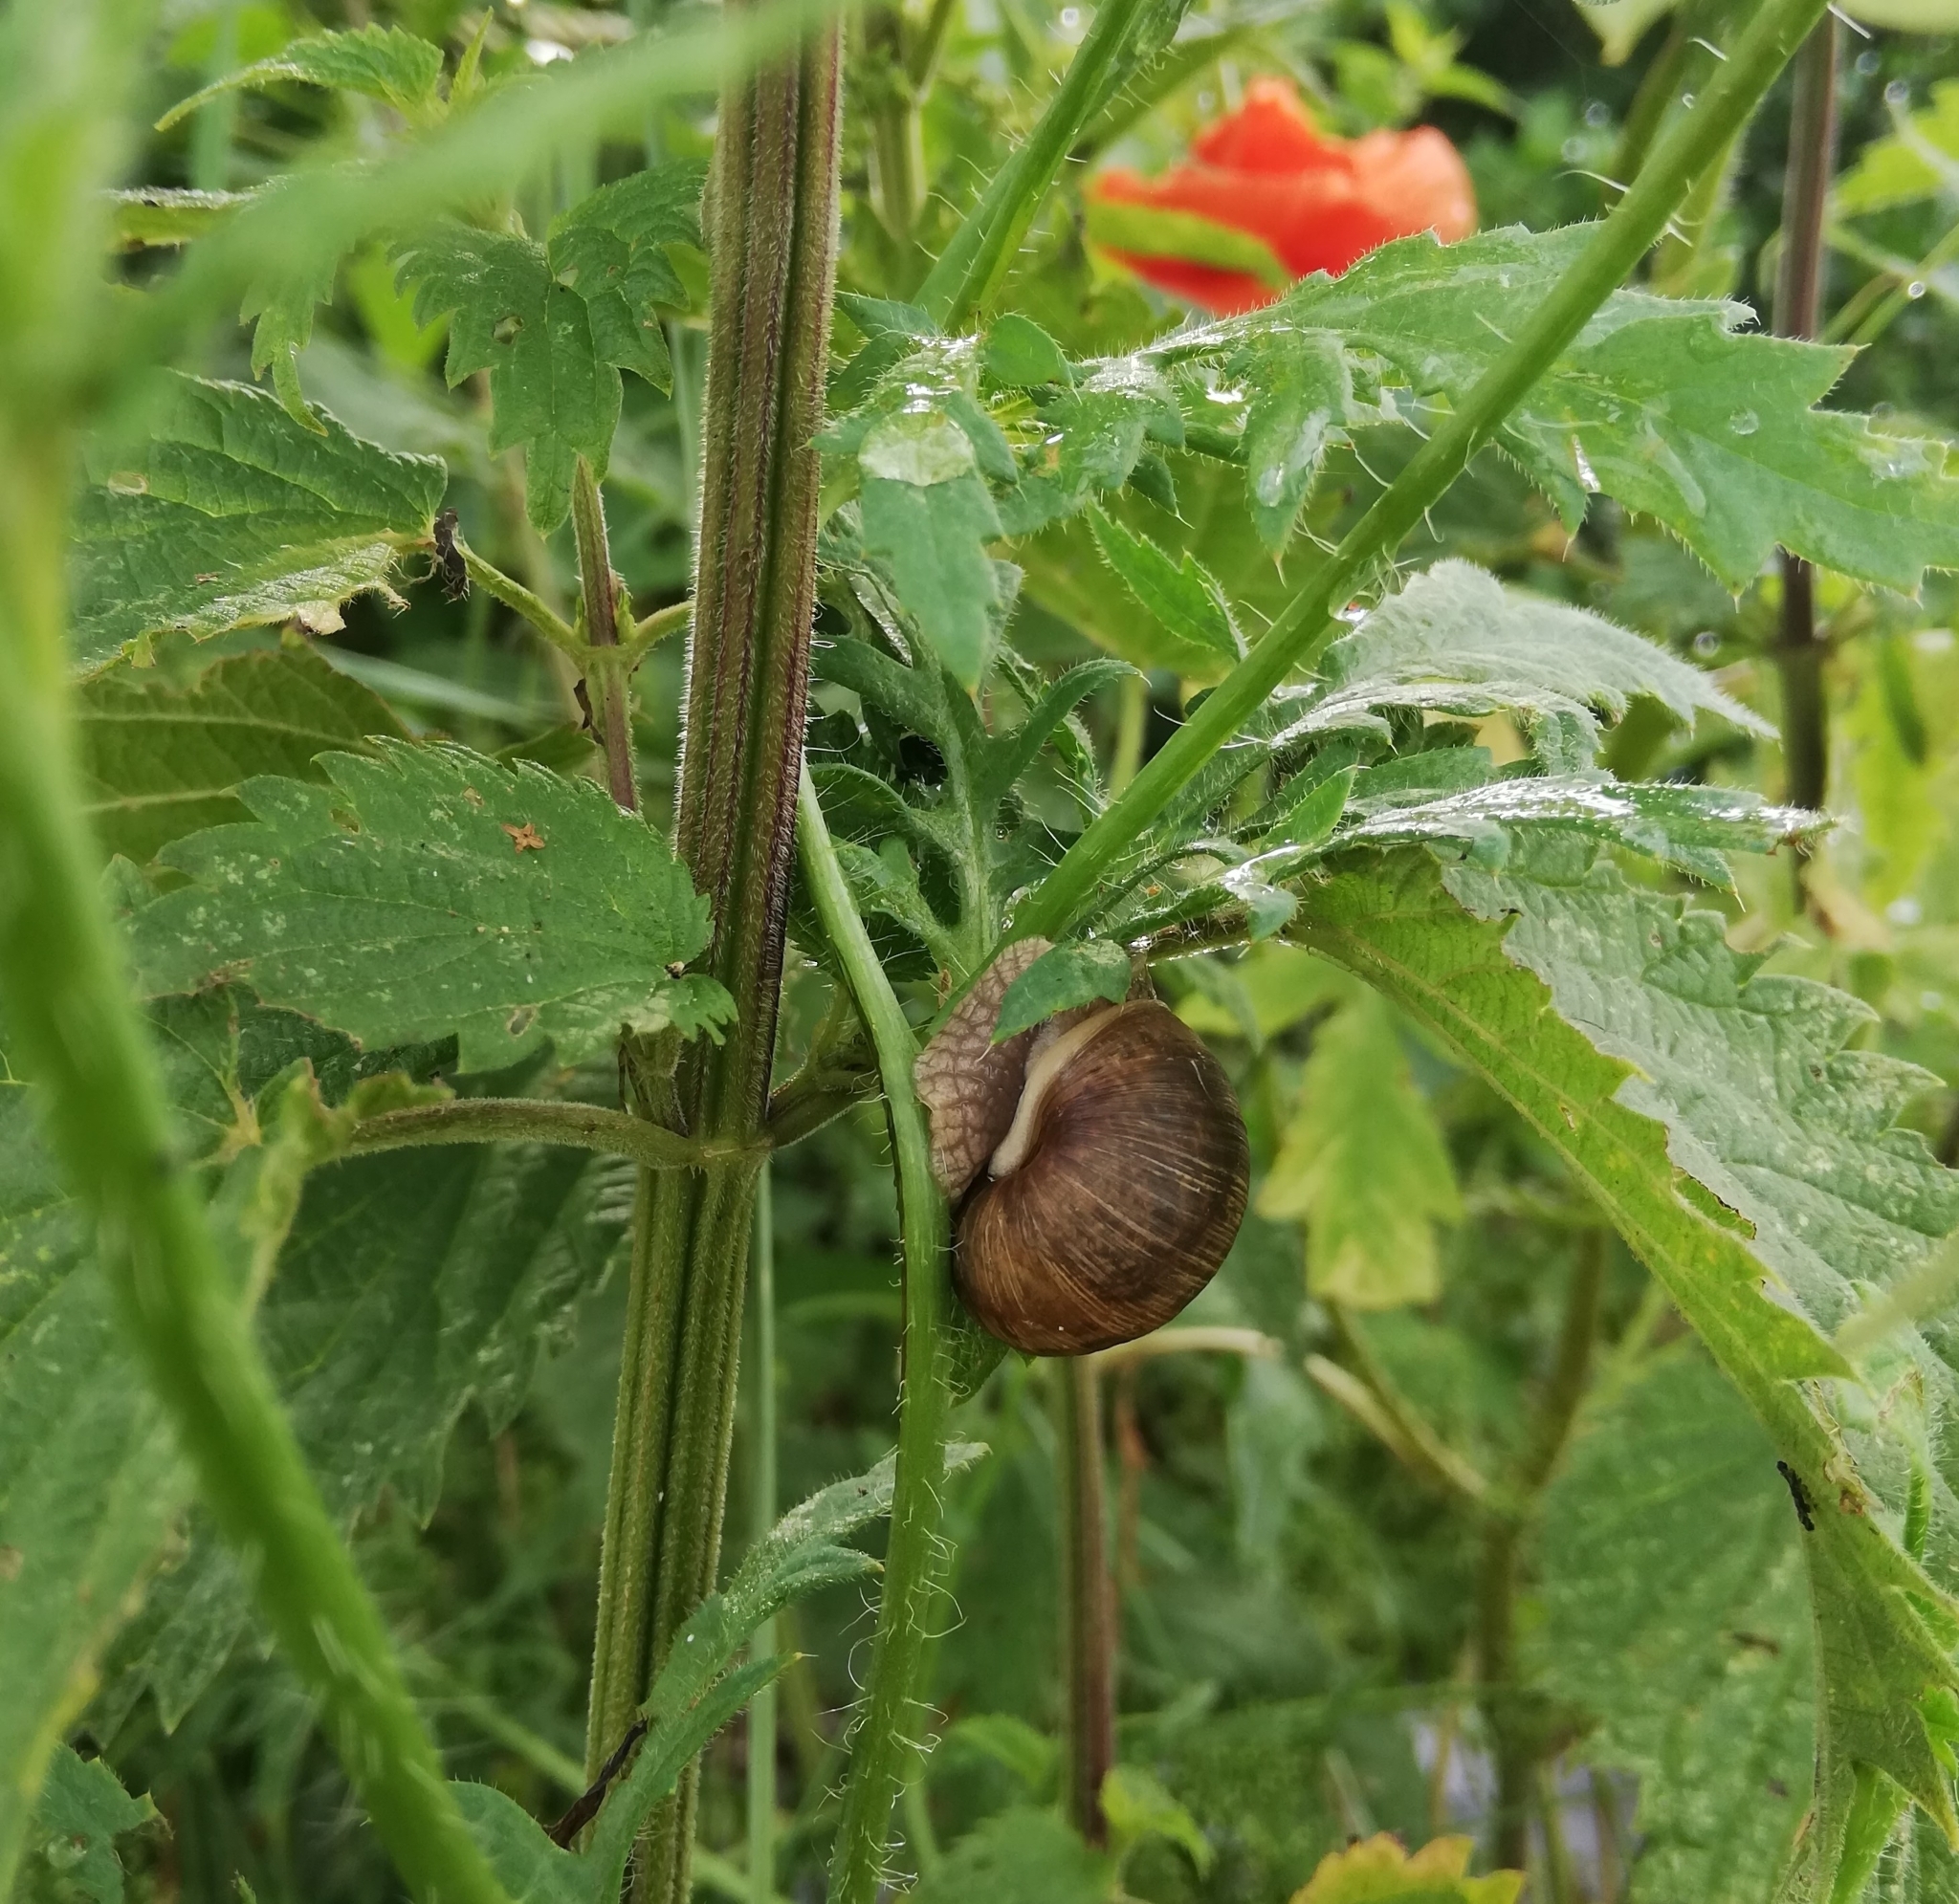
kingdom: Animalia
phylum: Mollusca
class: Gastropoda
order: Stylommatophora
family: Helicidae
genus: Helix
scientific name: Helix pomatia
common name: Roman snail
